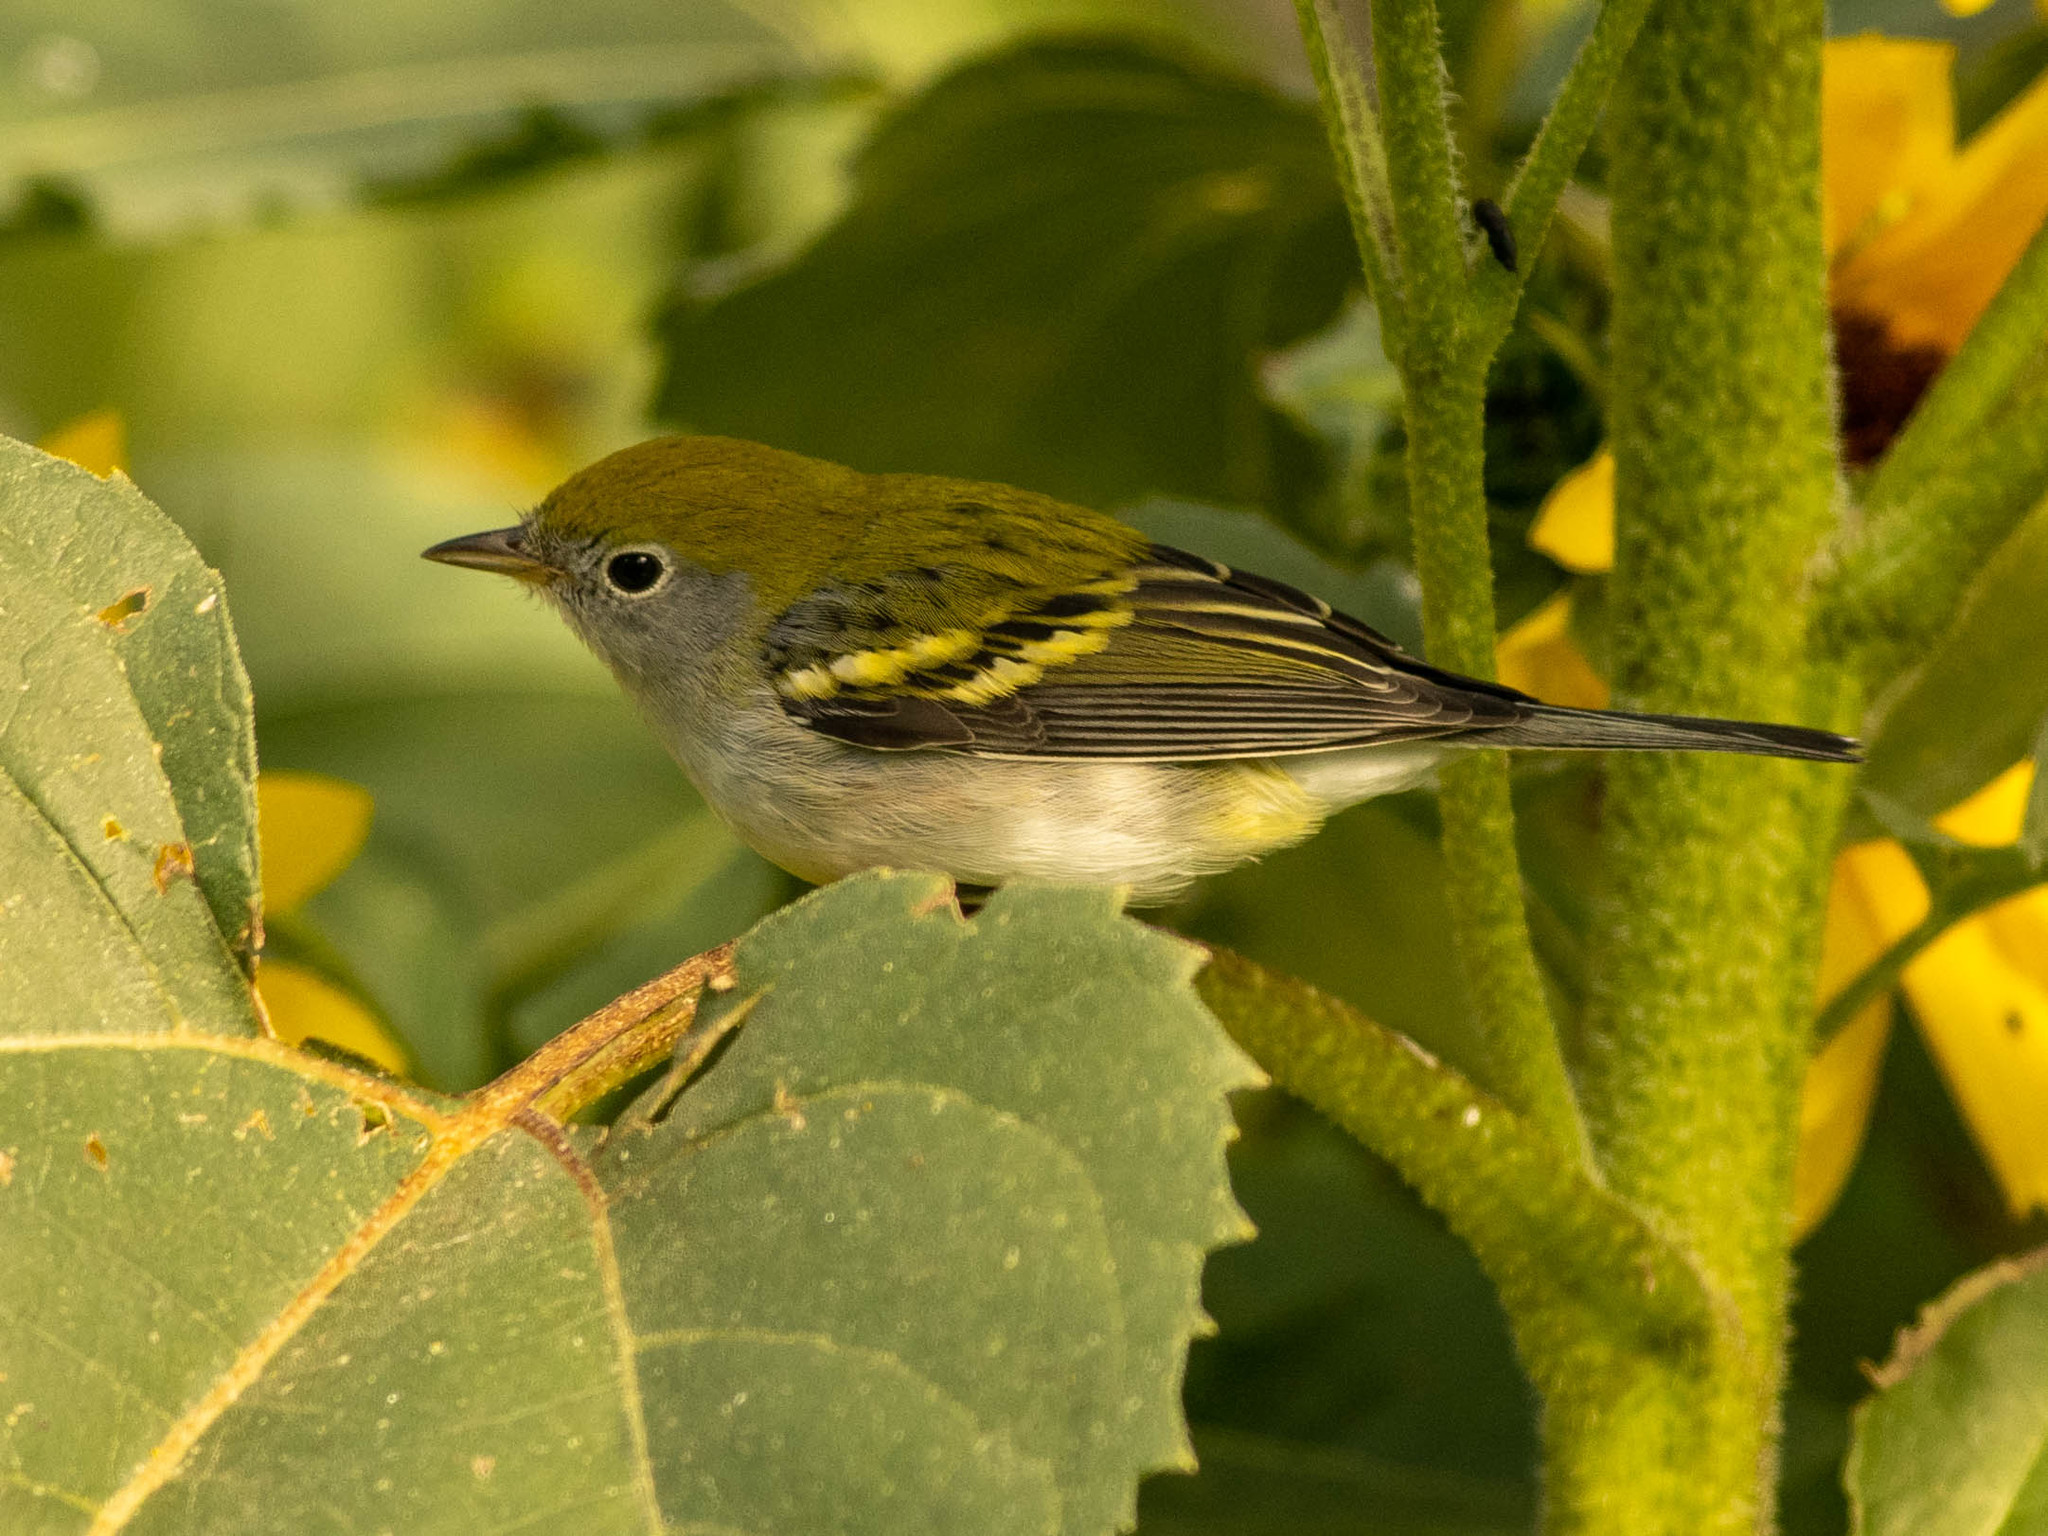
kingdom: Animalia
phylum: Chordata
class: Aves
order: Passeriformes
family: Parulidae
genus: Setophaga
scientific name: Setophaga pensylvanica
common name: Chestnut-sided warbler
